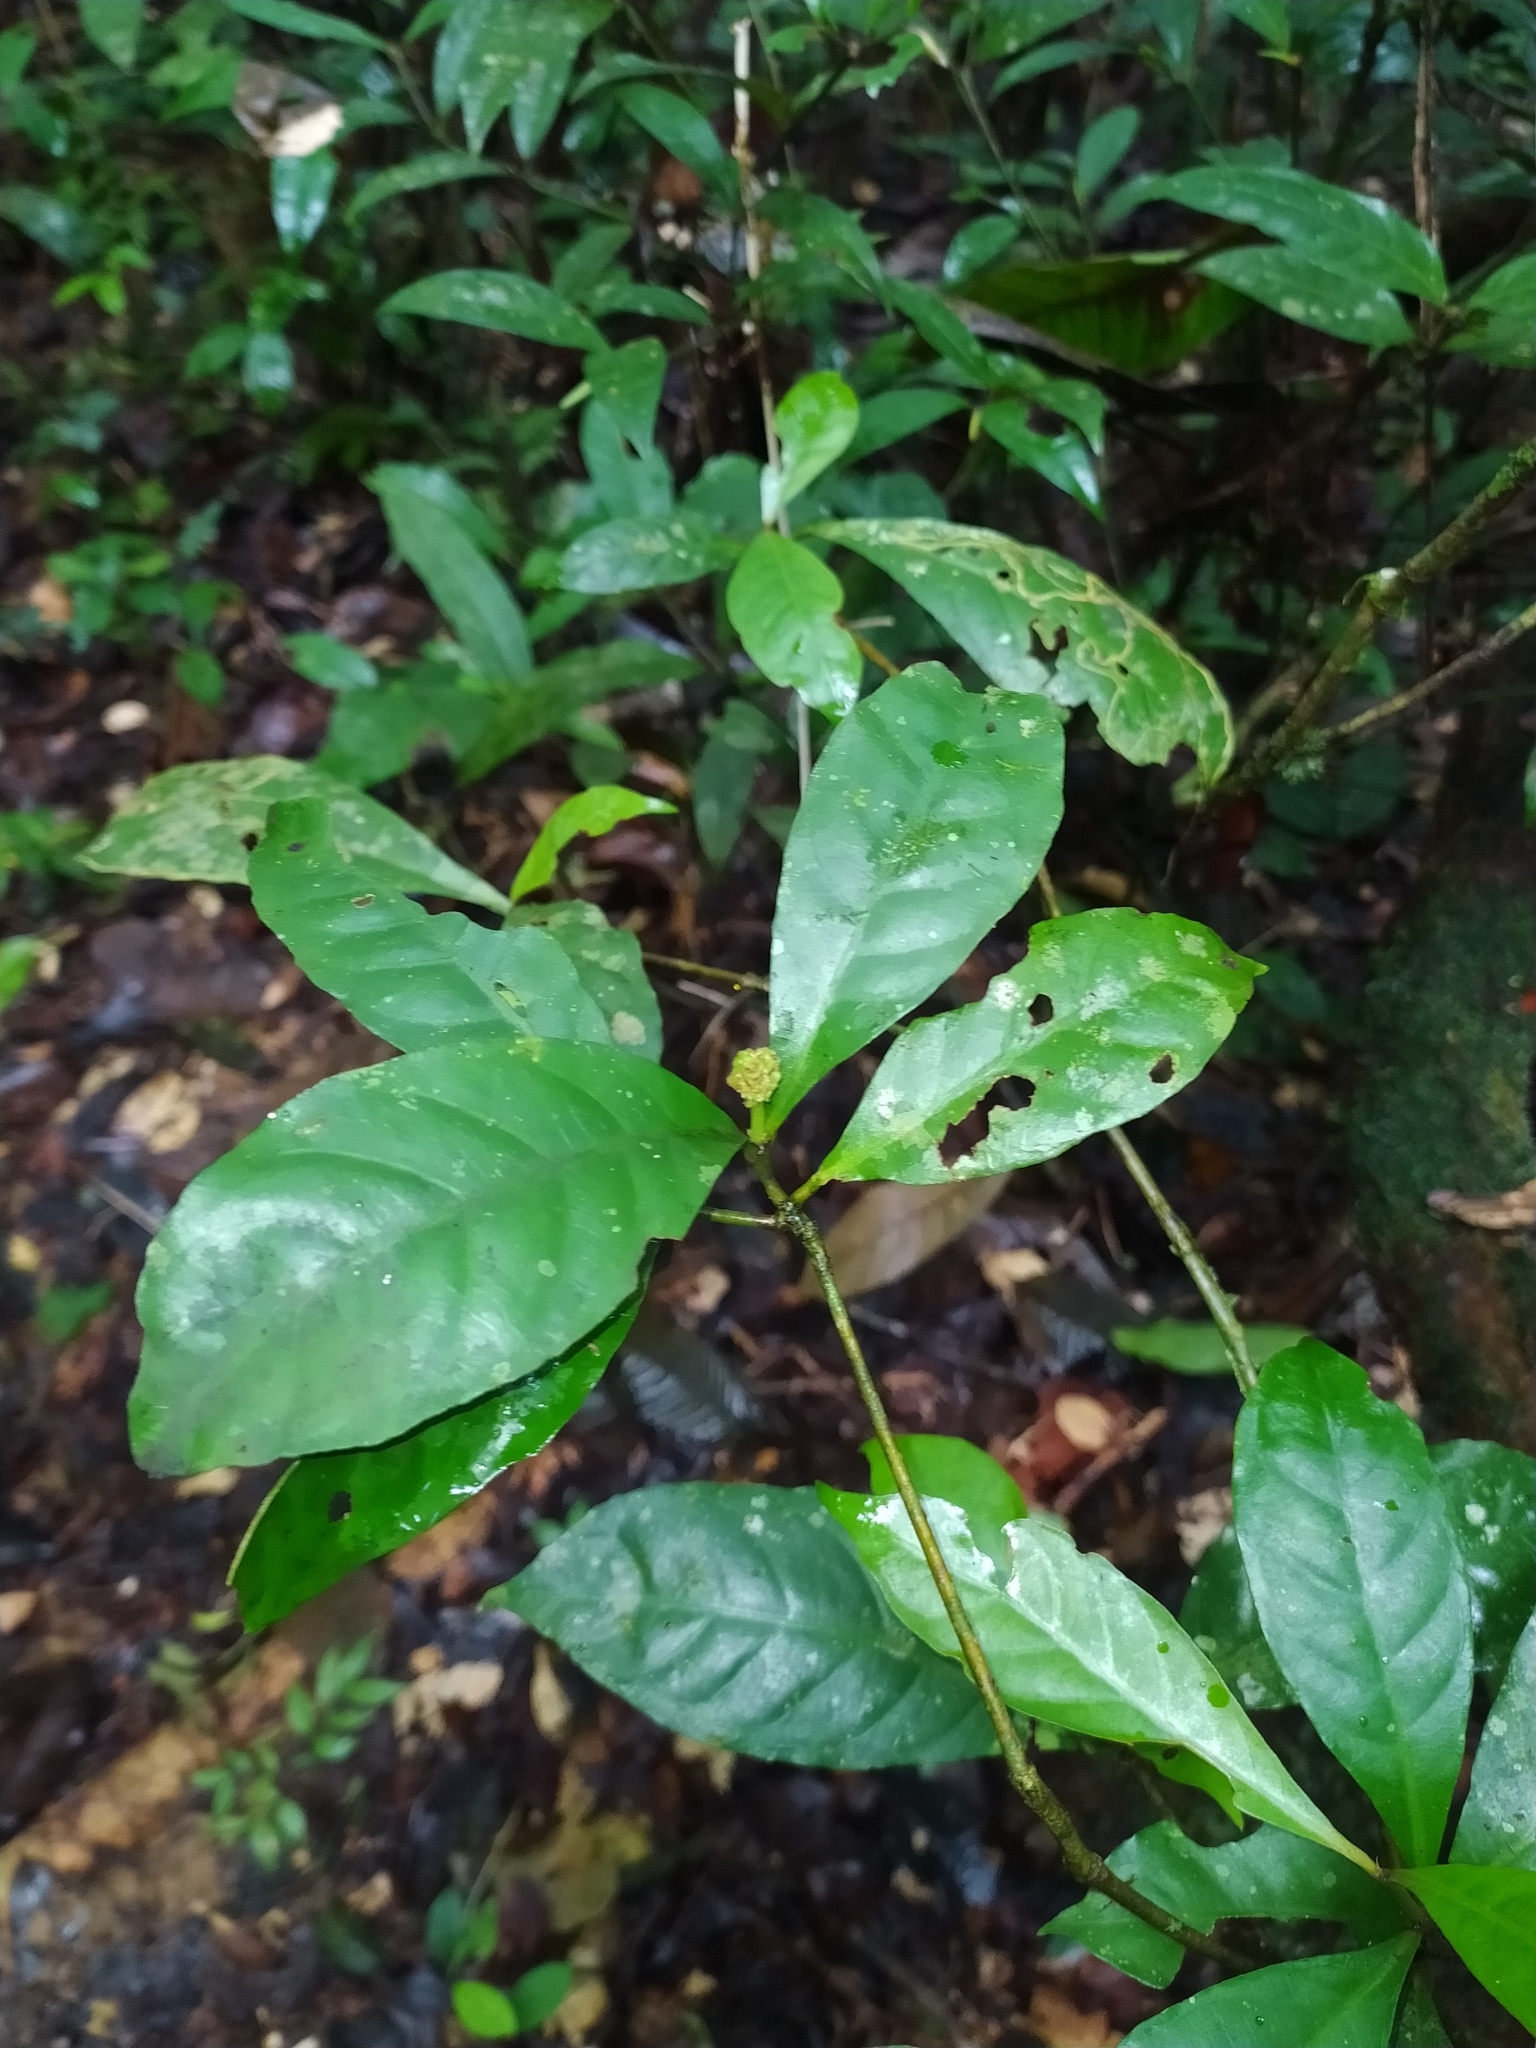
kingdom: Plantae
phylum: Tracheophyta
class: Magnoliopsida
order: Gentianales
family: Rubiaceae
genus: Eumachia
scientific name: Eumachia guianensis
